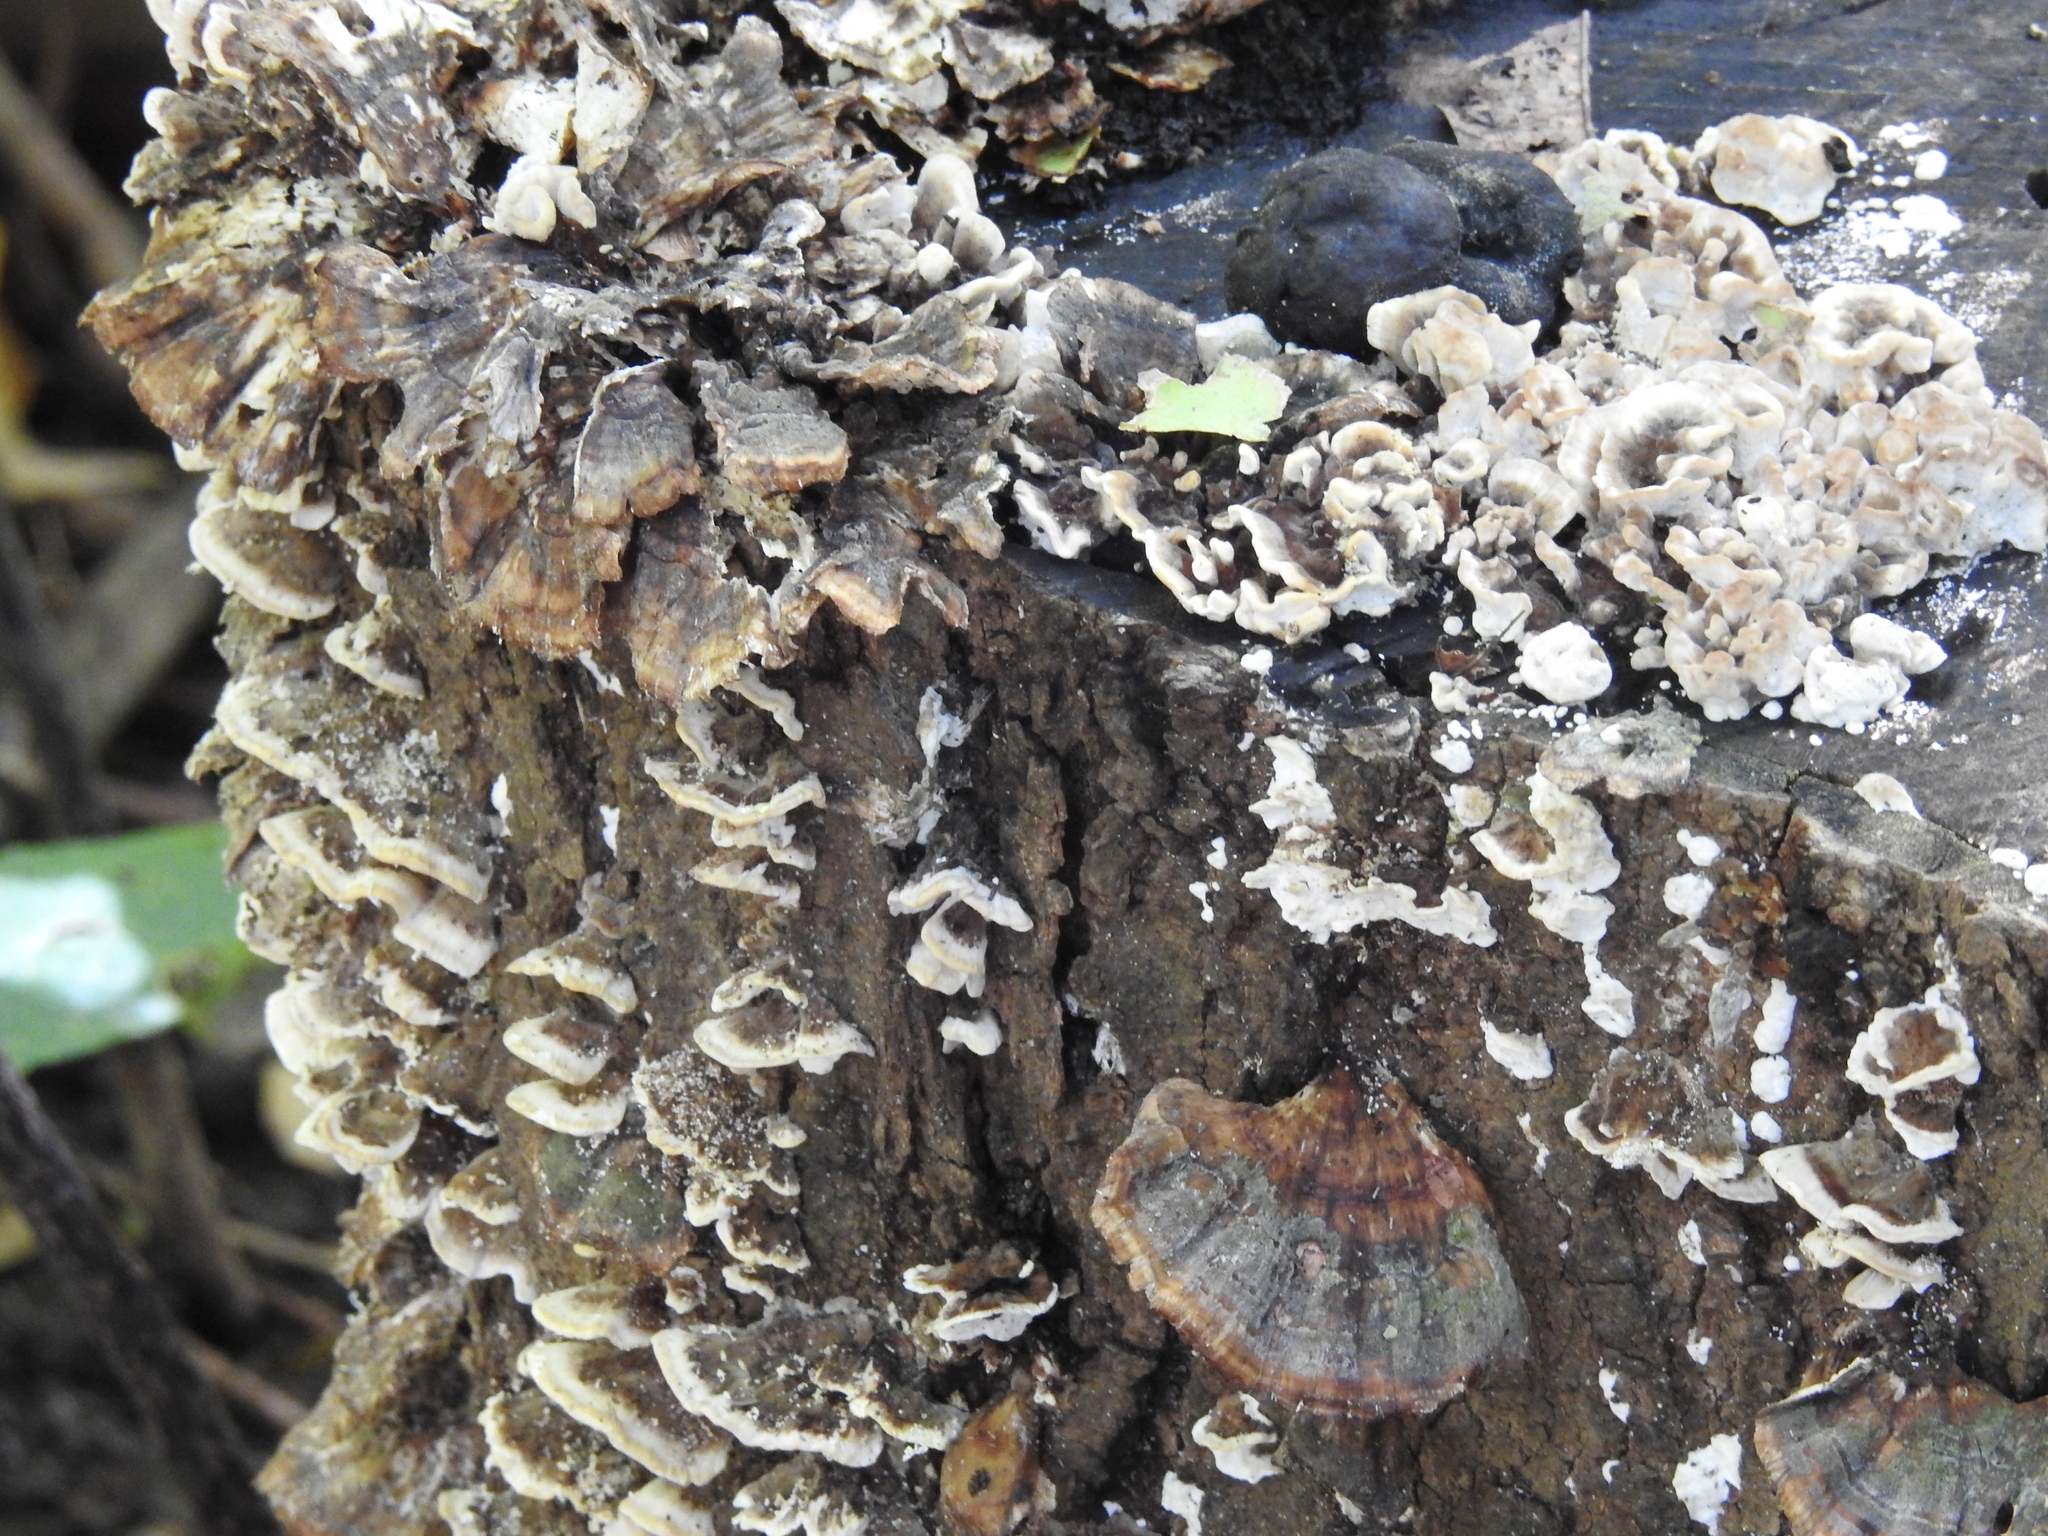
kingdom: Fungi
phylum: Basidiomycota
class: Agaricomycetes
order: Polyporales
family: Polyporaceae
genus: Trametes
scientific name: Trametes versicolor
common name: Turkeytail
